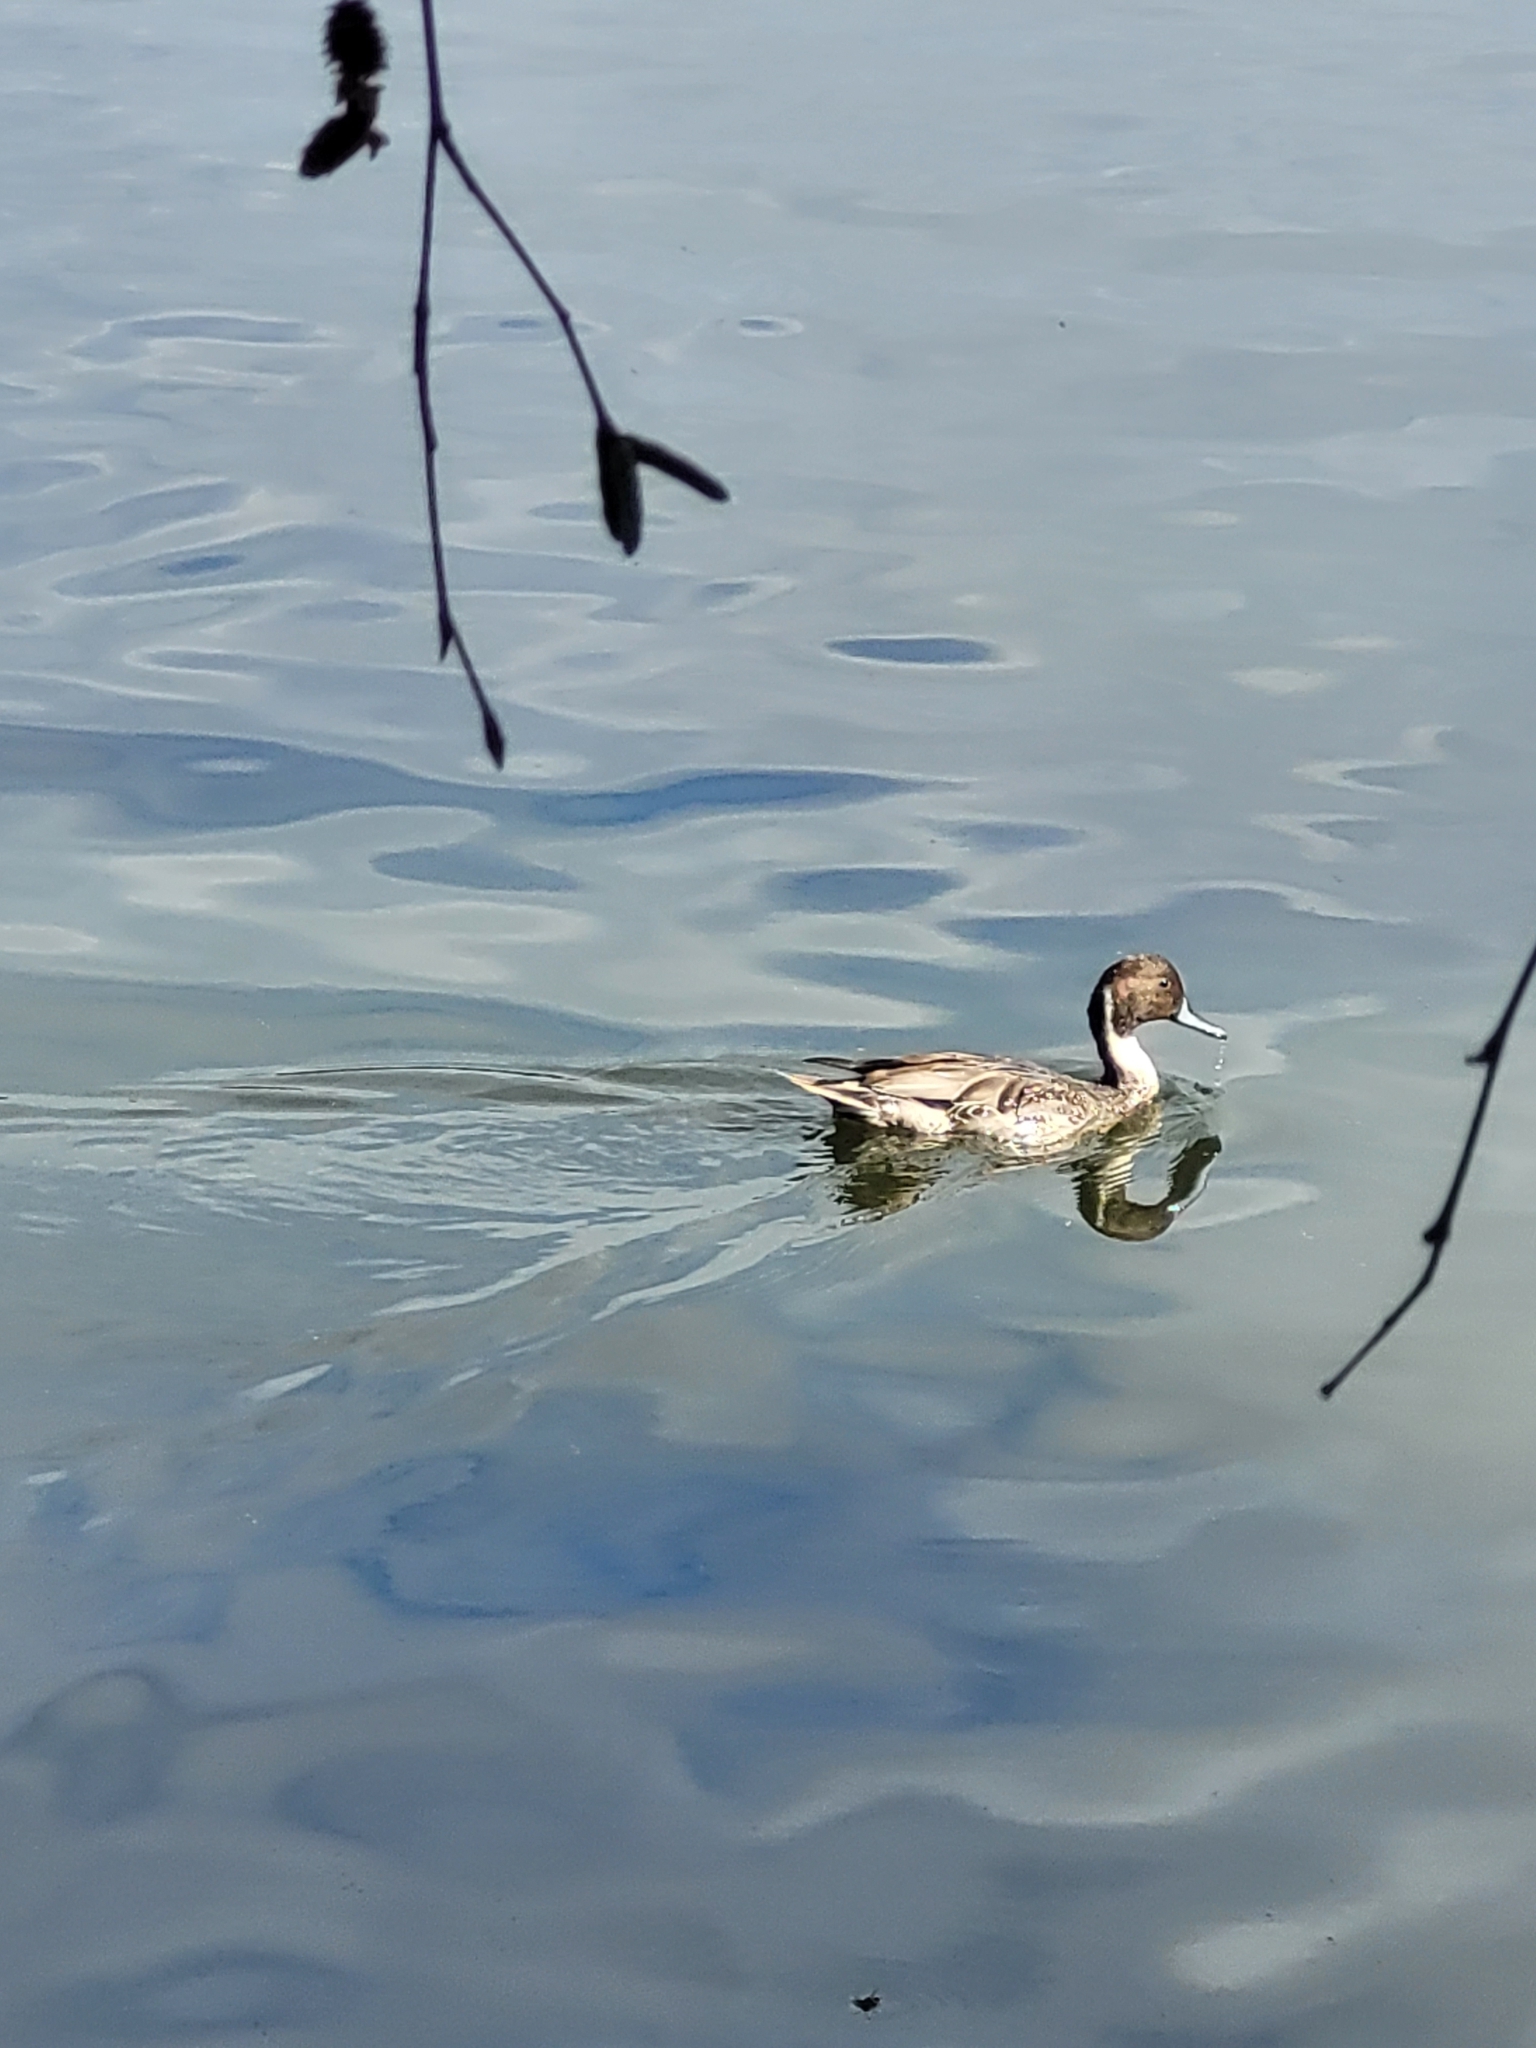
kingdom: Animalia
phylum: Chordata
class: Aves
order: Anseriformes
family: Anatidae
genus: Anas
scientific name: Anas acuta
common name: Northern pintail
